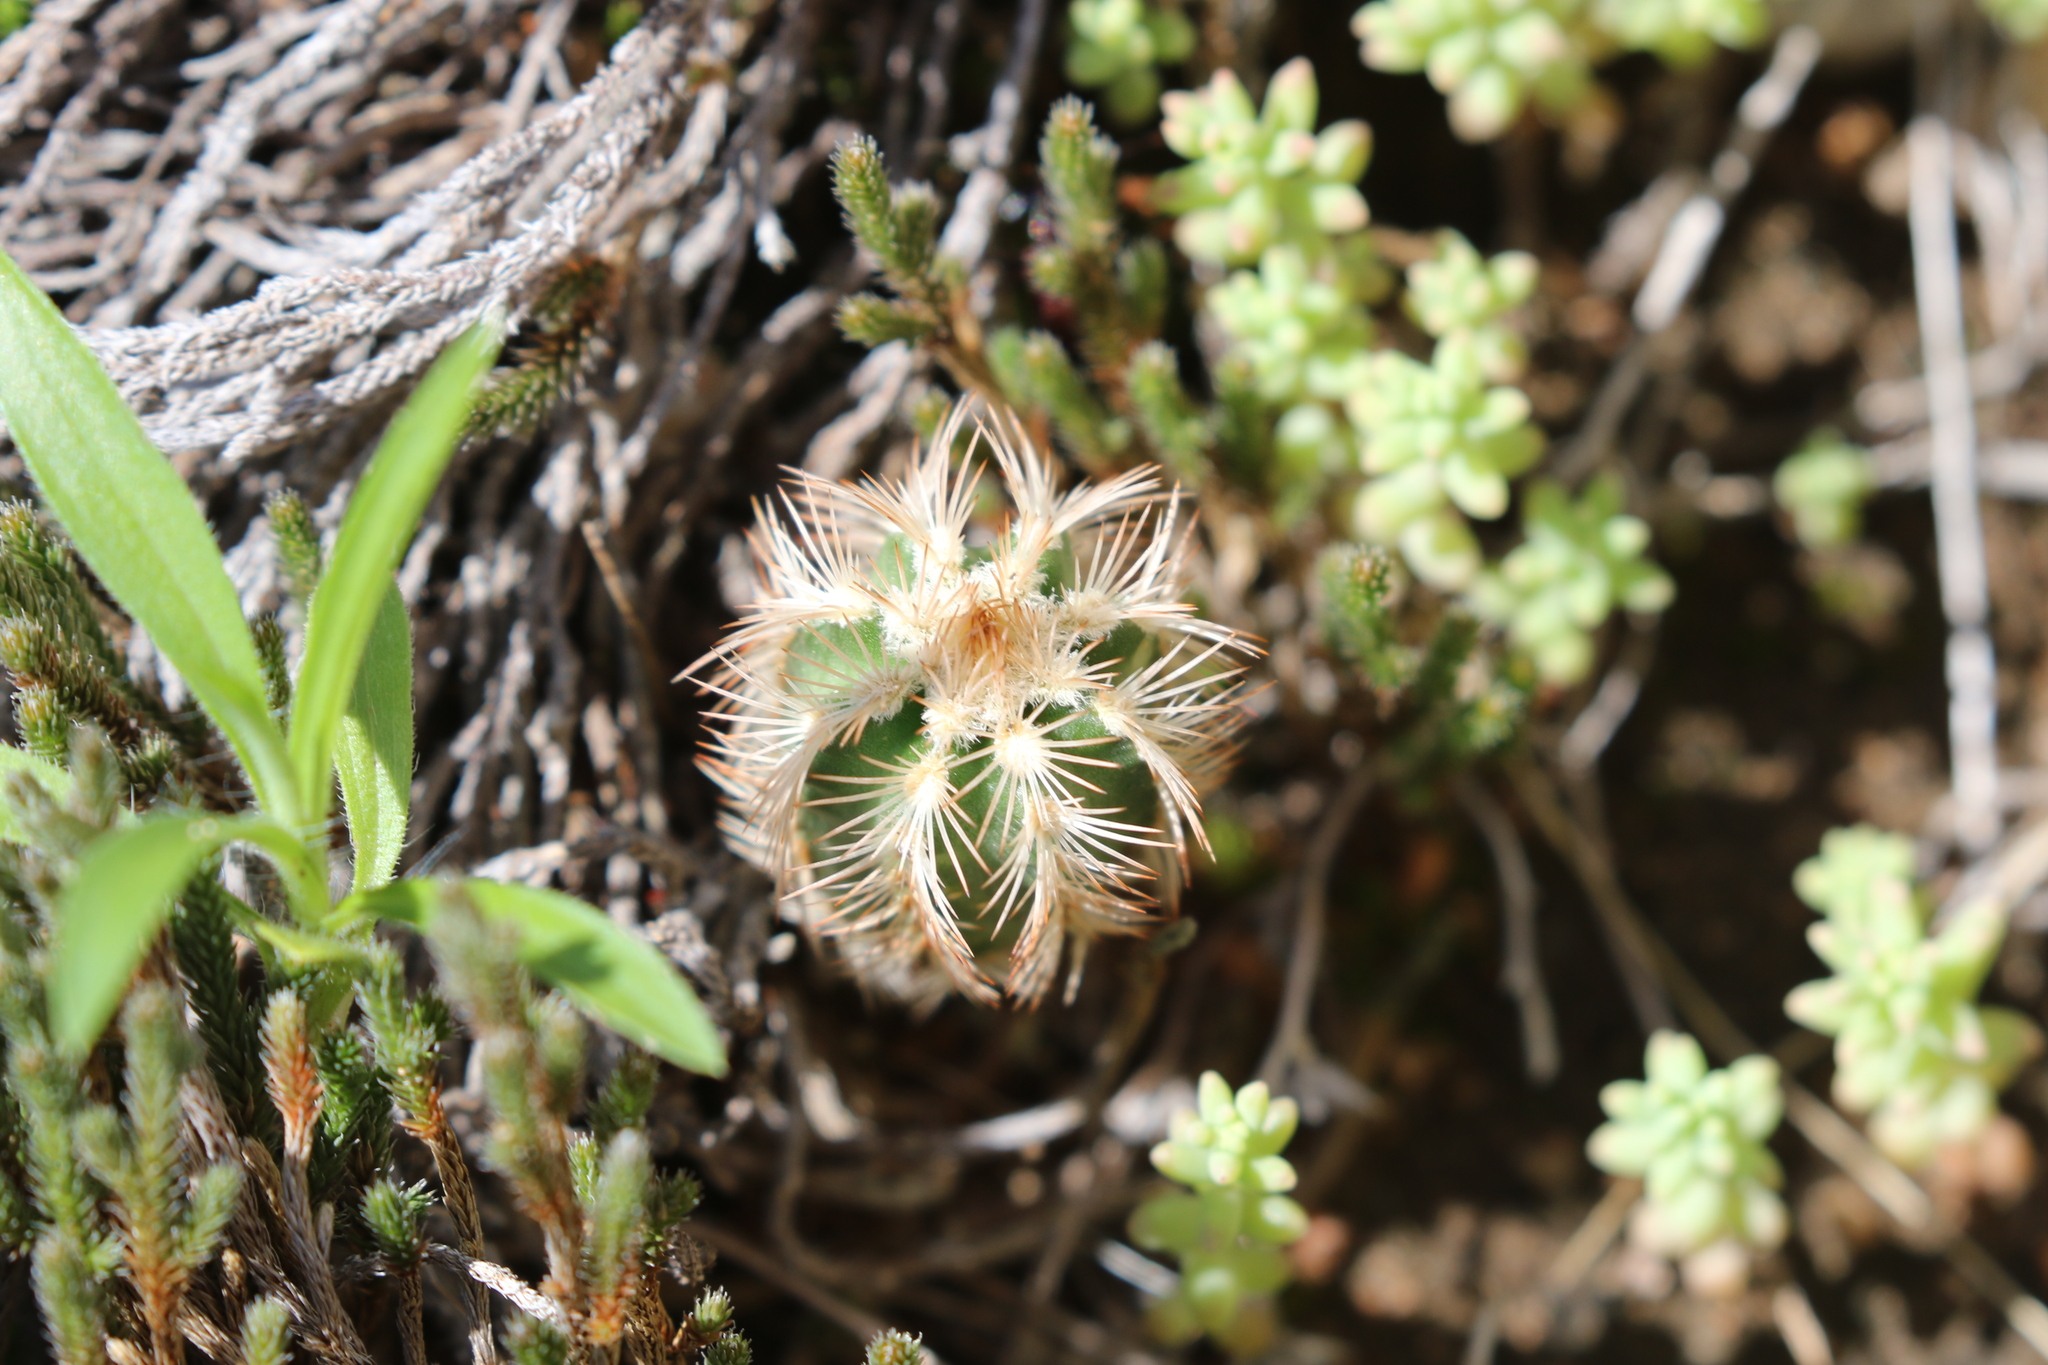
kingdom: Plantae
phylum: Tracheophyta
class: Magnoliopsida
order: Caryophyllales
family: Cactaceae
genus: Echinocereus
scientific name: Echinocereus reichenbachii
